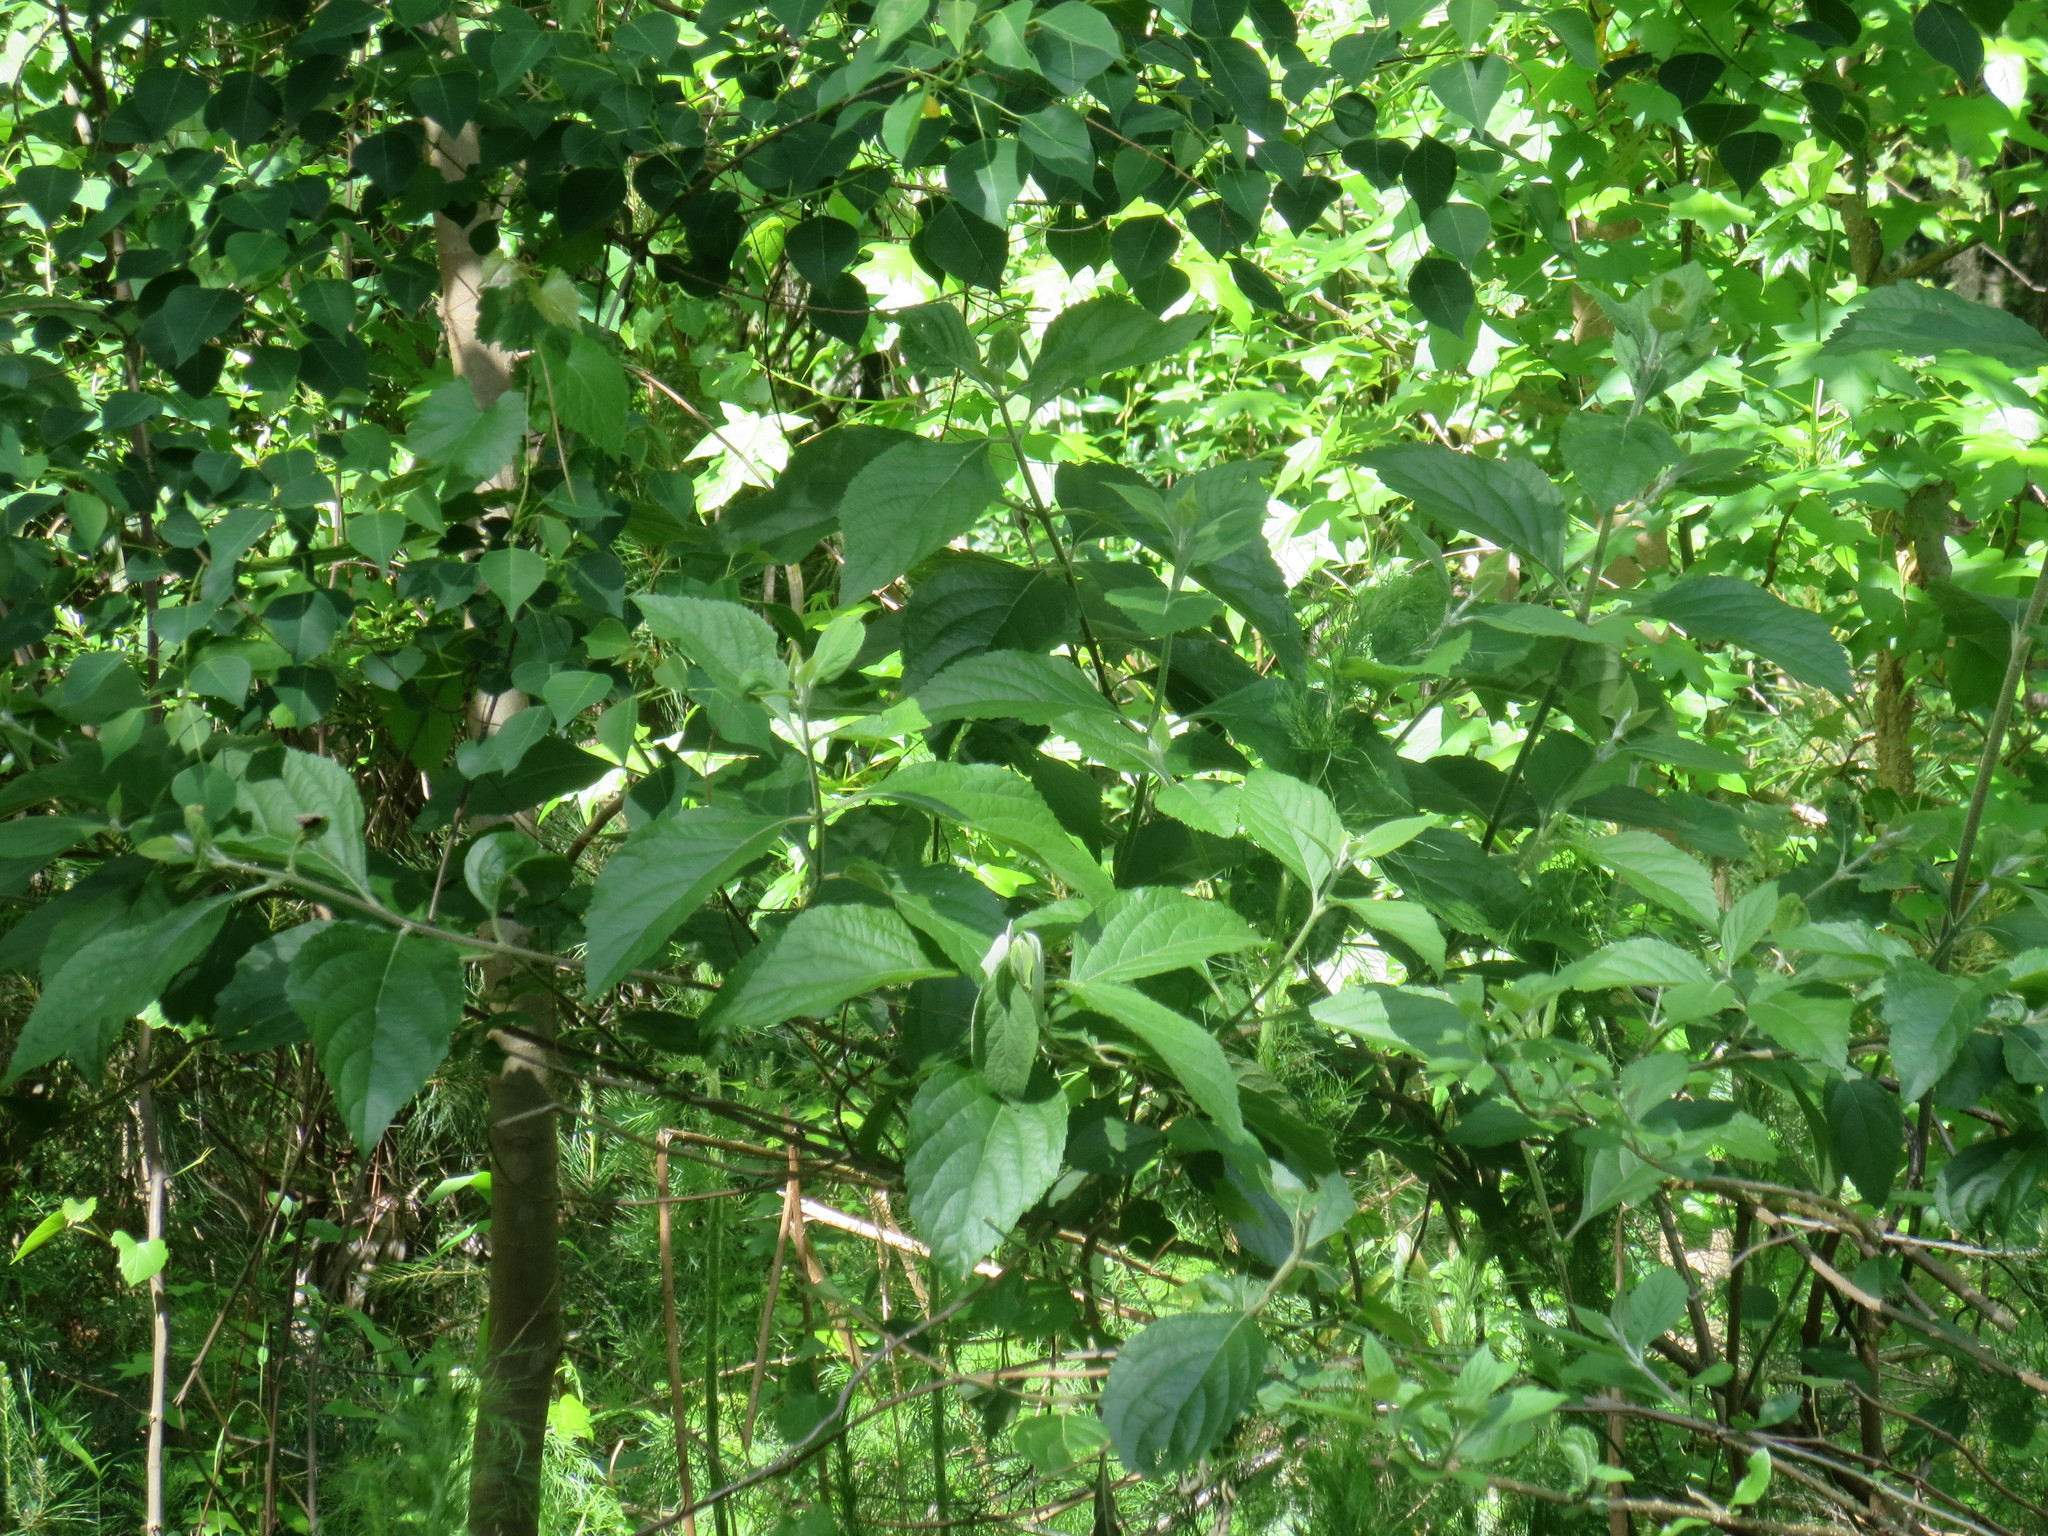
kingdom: Plantae
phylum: Tracheophyta
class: Magnoliopsida
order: Lamiales
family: Lamiaceae
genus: Callicarpa
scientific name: Callicarpa americana
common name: American beautyberry
